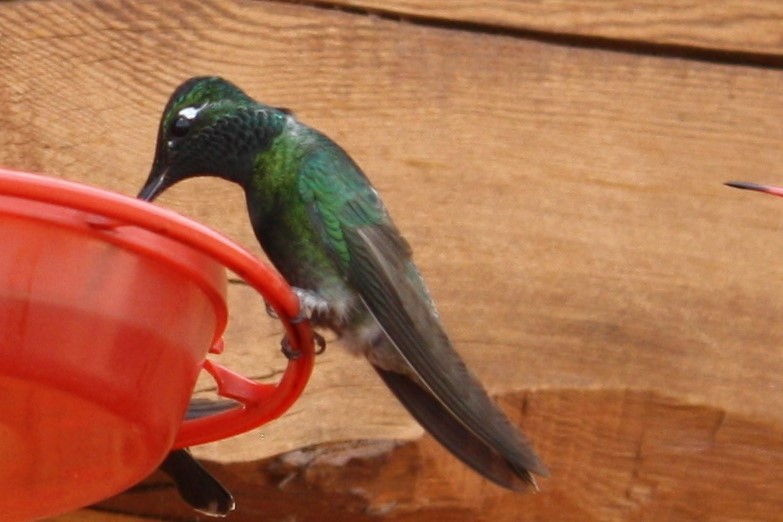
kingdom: Animalia
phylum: Chordata
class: Aves
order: Apodiformes
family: Trochilidae
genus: Eugenes
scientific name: Eugenes fulgens
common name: Magnificent hummingbird
